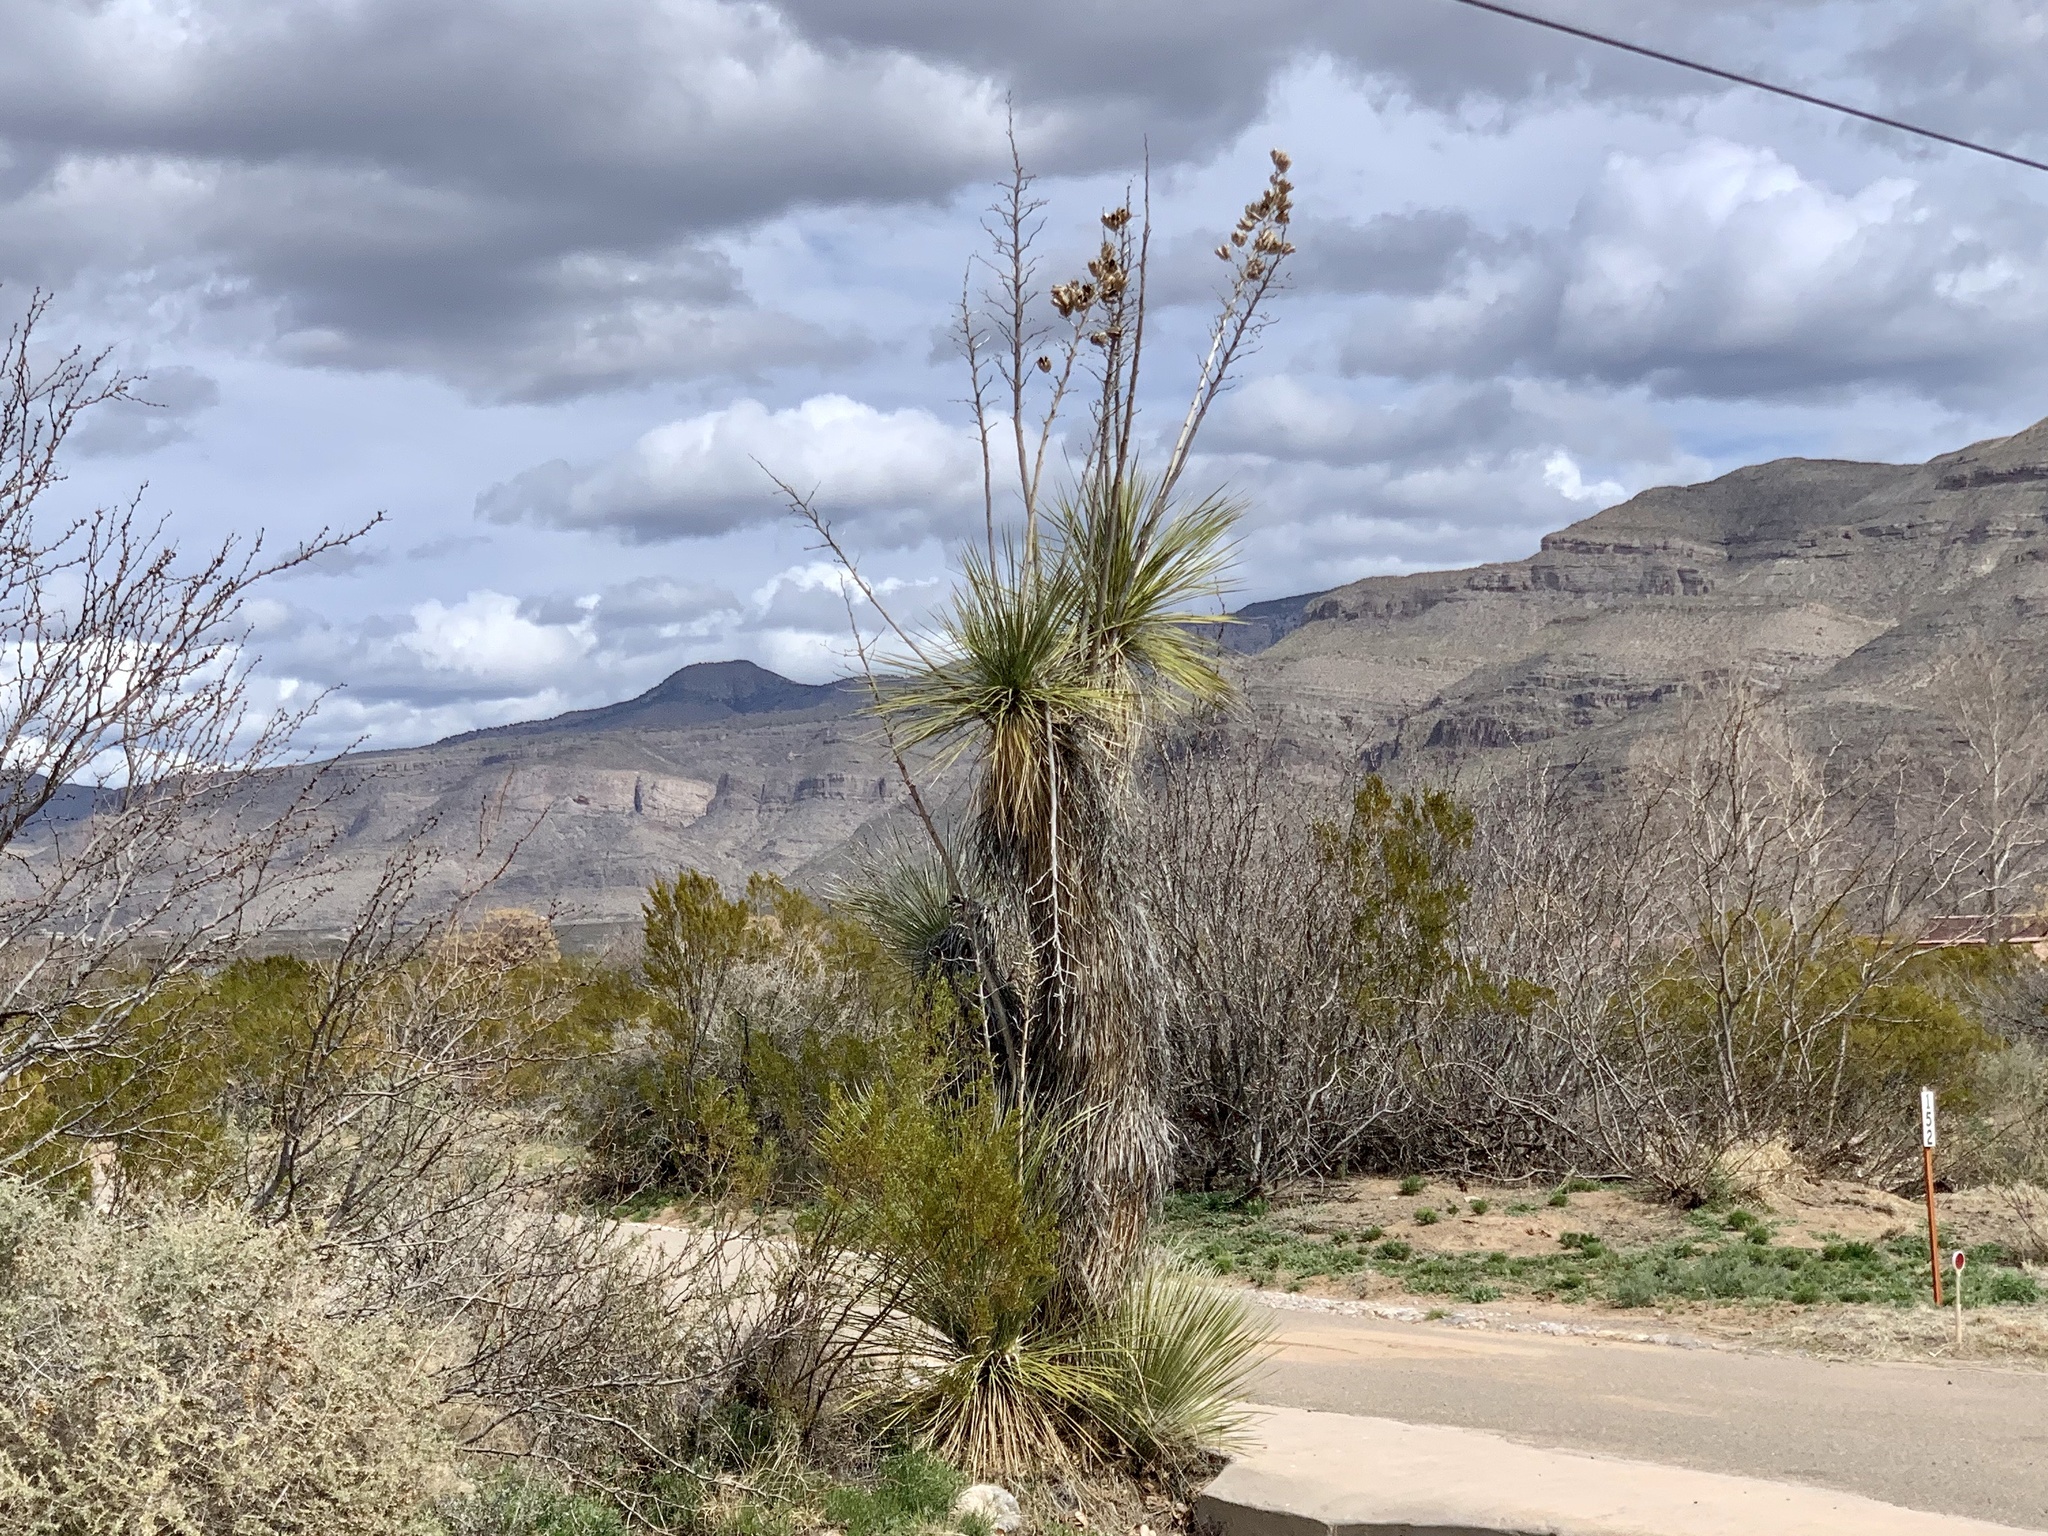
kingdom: Plantae
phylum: Tracheophyta
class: Liliopsida
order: Asparagales
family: Asparagaceae
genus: Yucca
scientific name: Yucca elata
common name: Palmella
